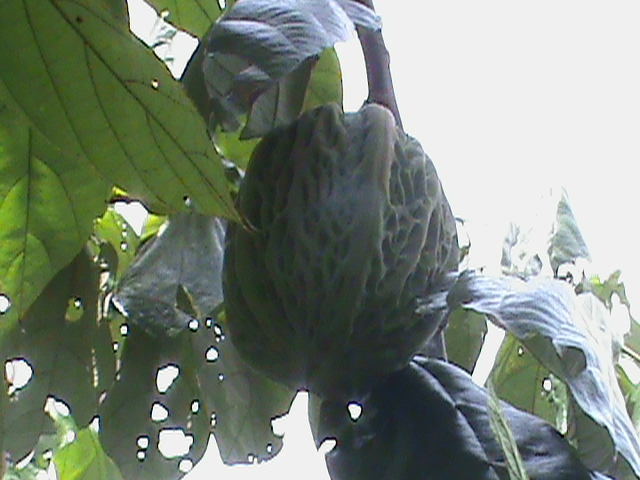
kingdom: Plantae
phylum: Tracheophyta
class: Magnoliopsida
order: Malvales
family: Malvaceae
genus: Theobroma
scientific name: Theobroma bicolor
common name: Macambo tree
